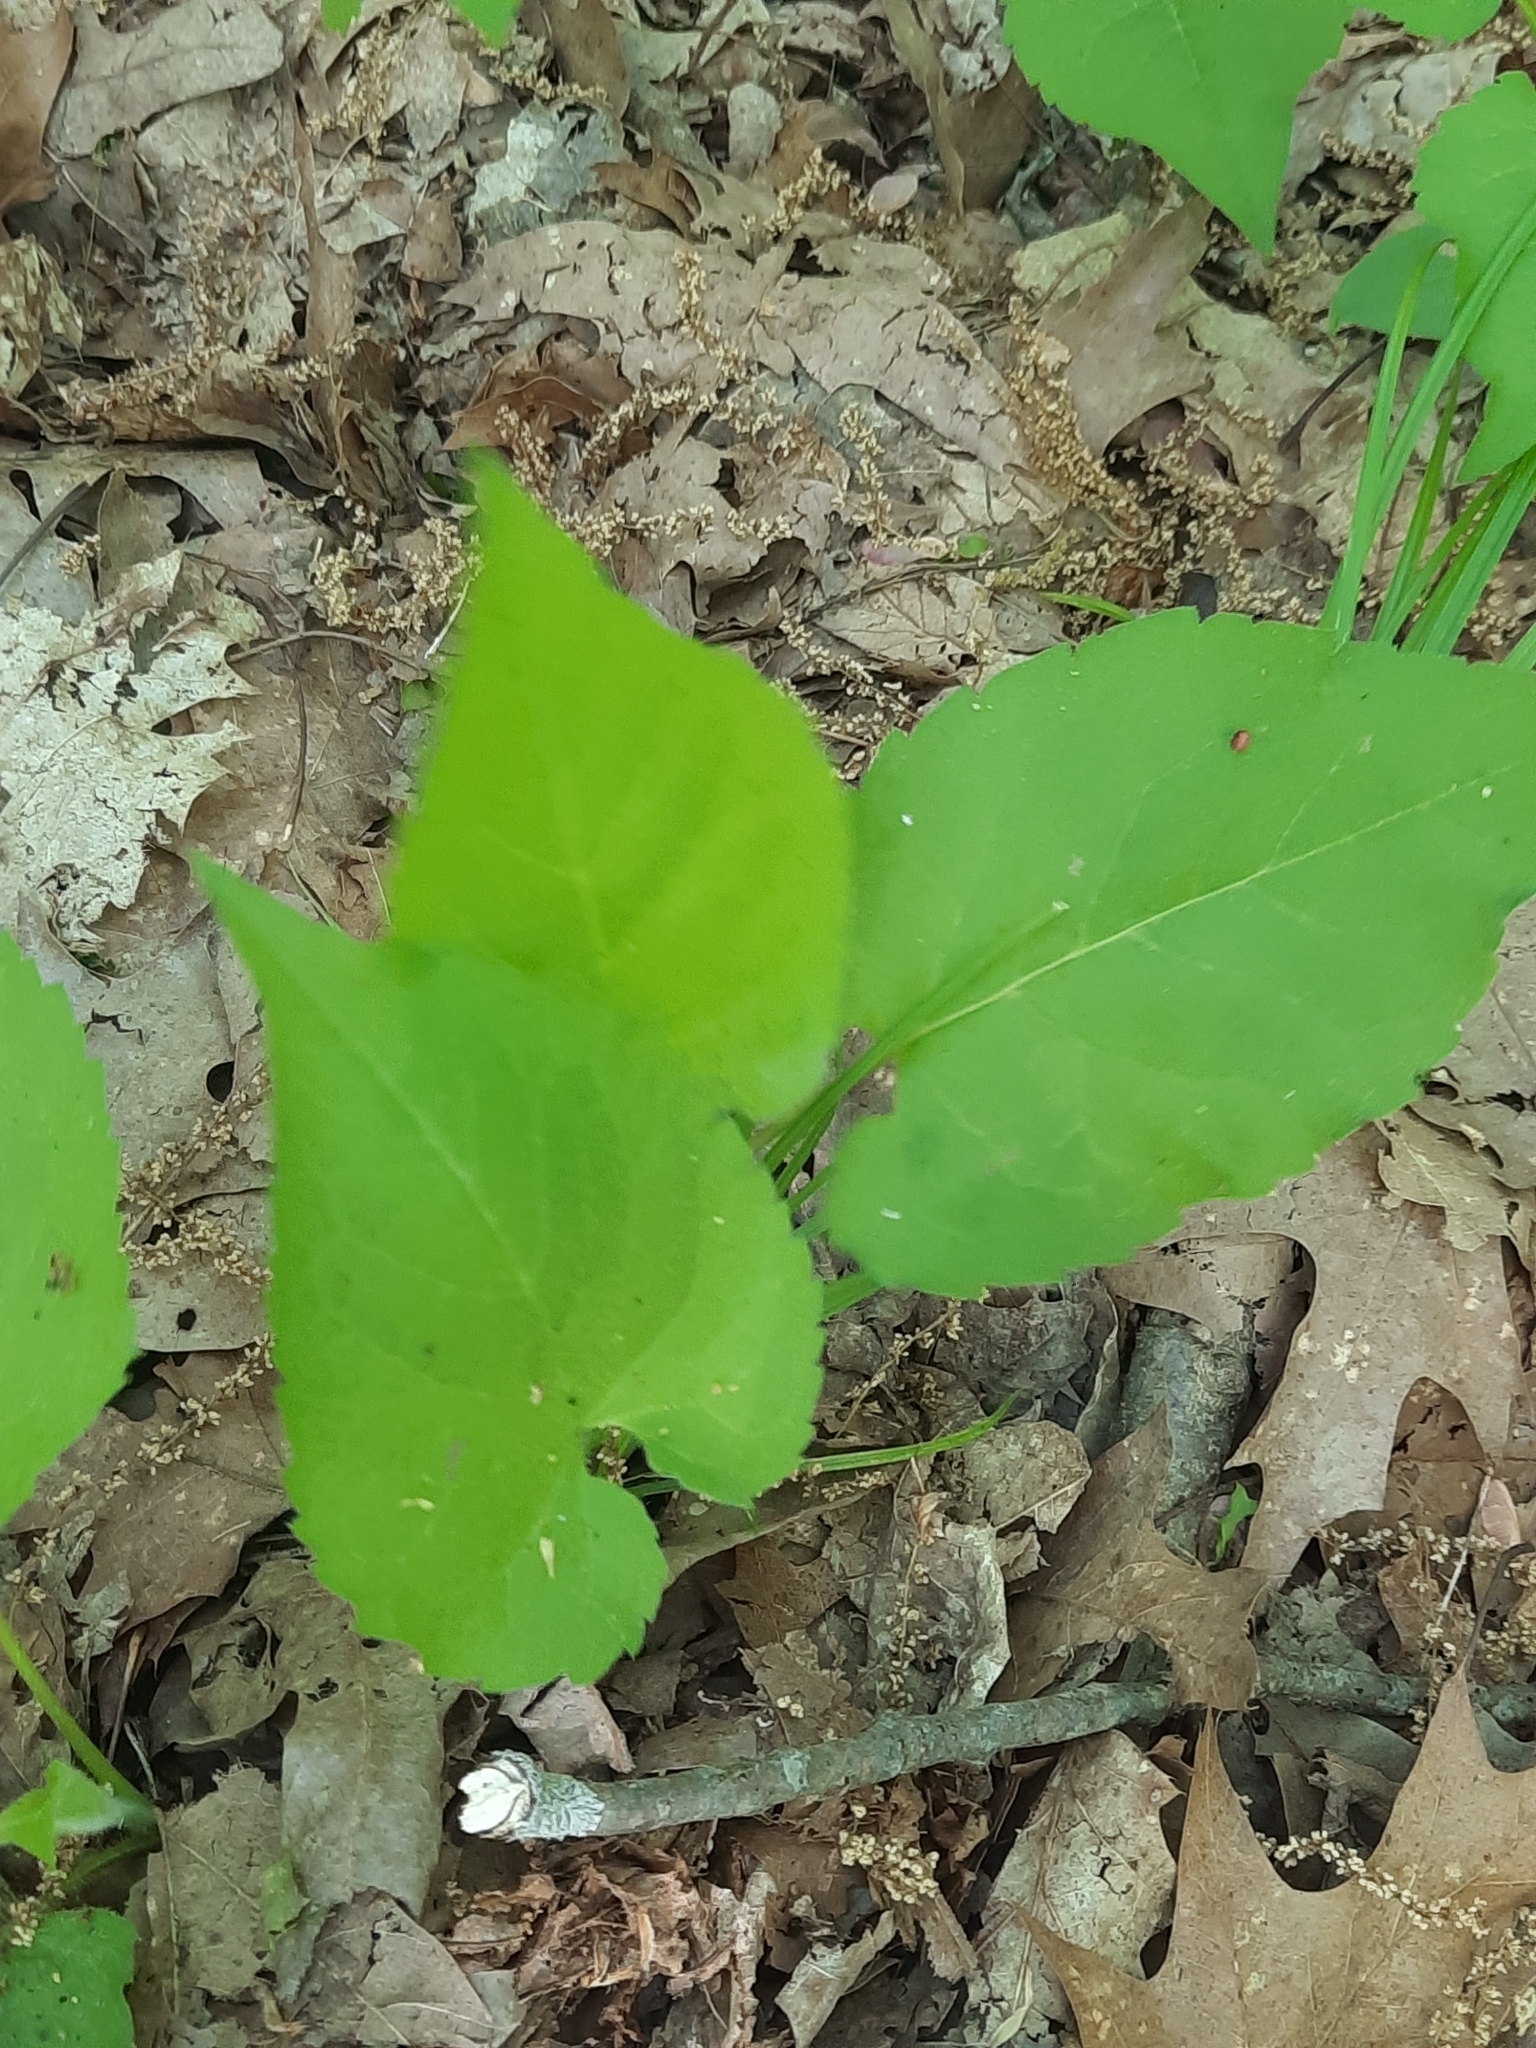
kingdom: Plantae
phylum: Tracheophyta
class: Magnoliopsida
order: Asterales
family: Asteraceae
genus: Eurybia
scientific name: Eurybia macrophylla
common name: Big-leaved aster
